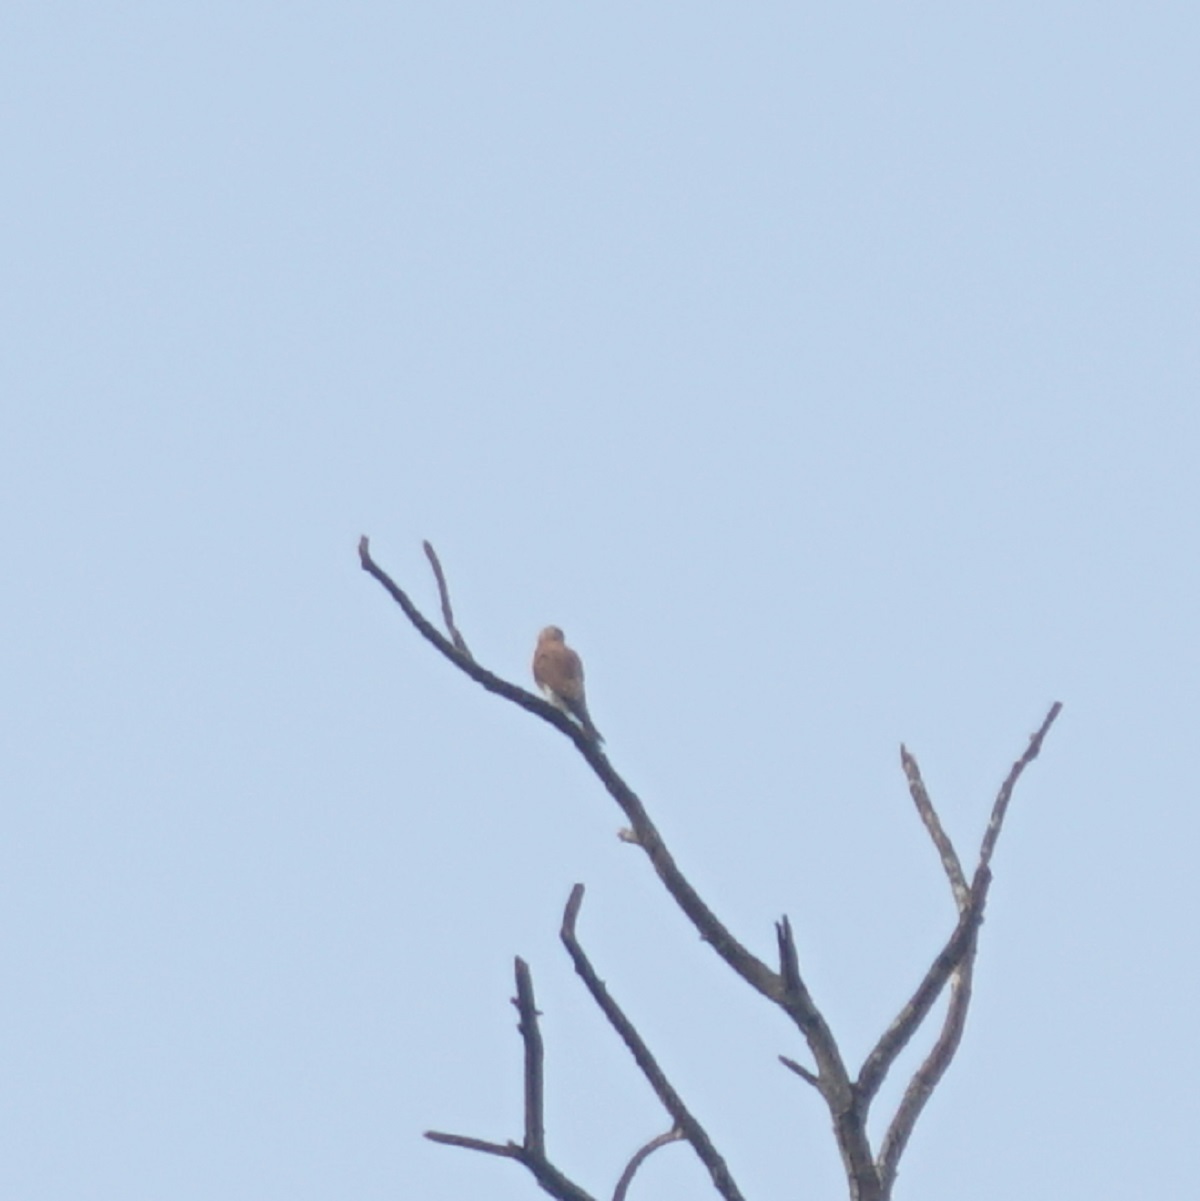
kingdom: Animalia
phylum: Chordata
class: Aves
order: Falconiformes
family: Falconidae
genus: Falco
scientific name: Falco cenchroides
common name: Nankeen kestrel
